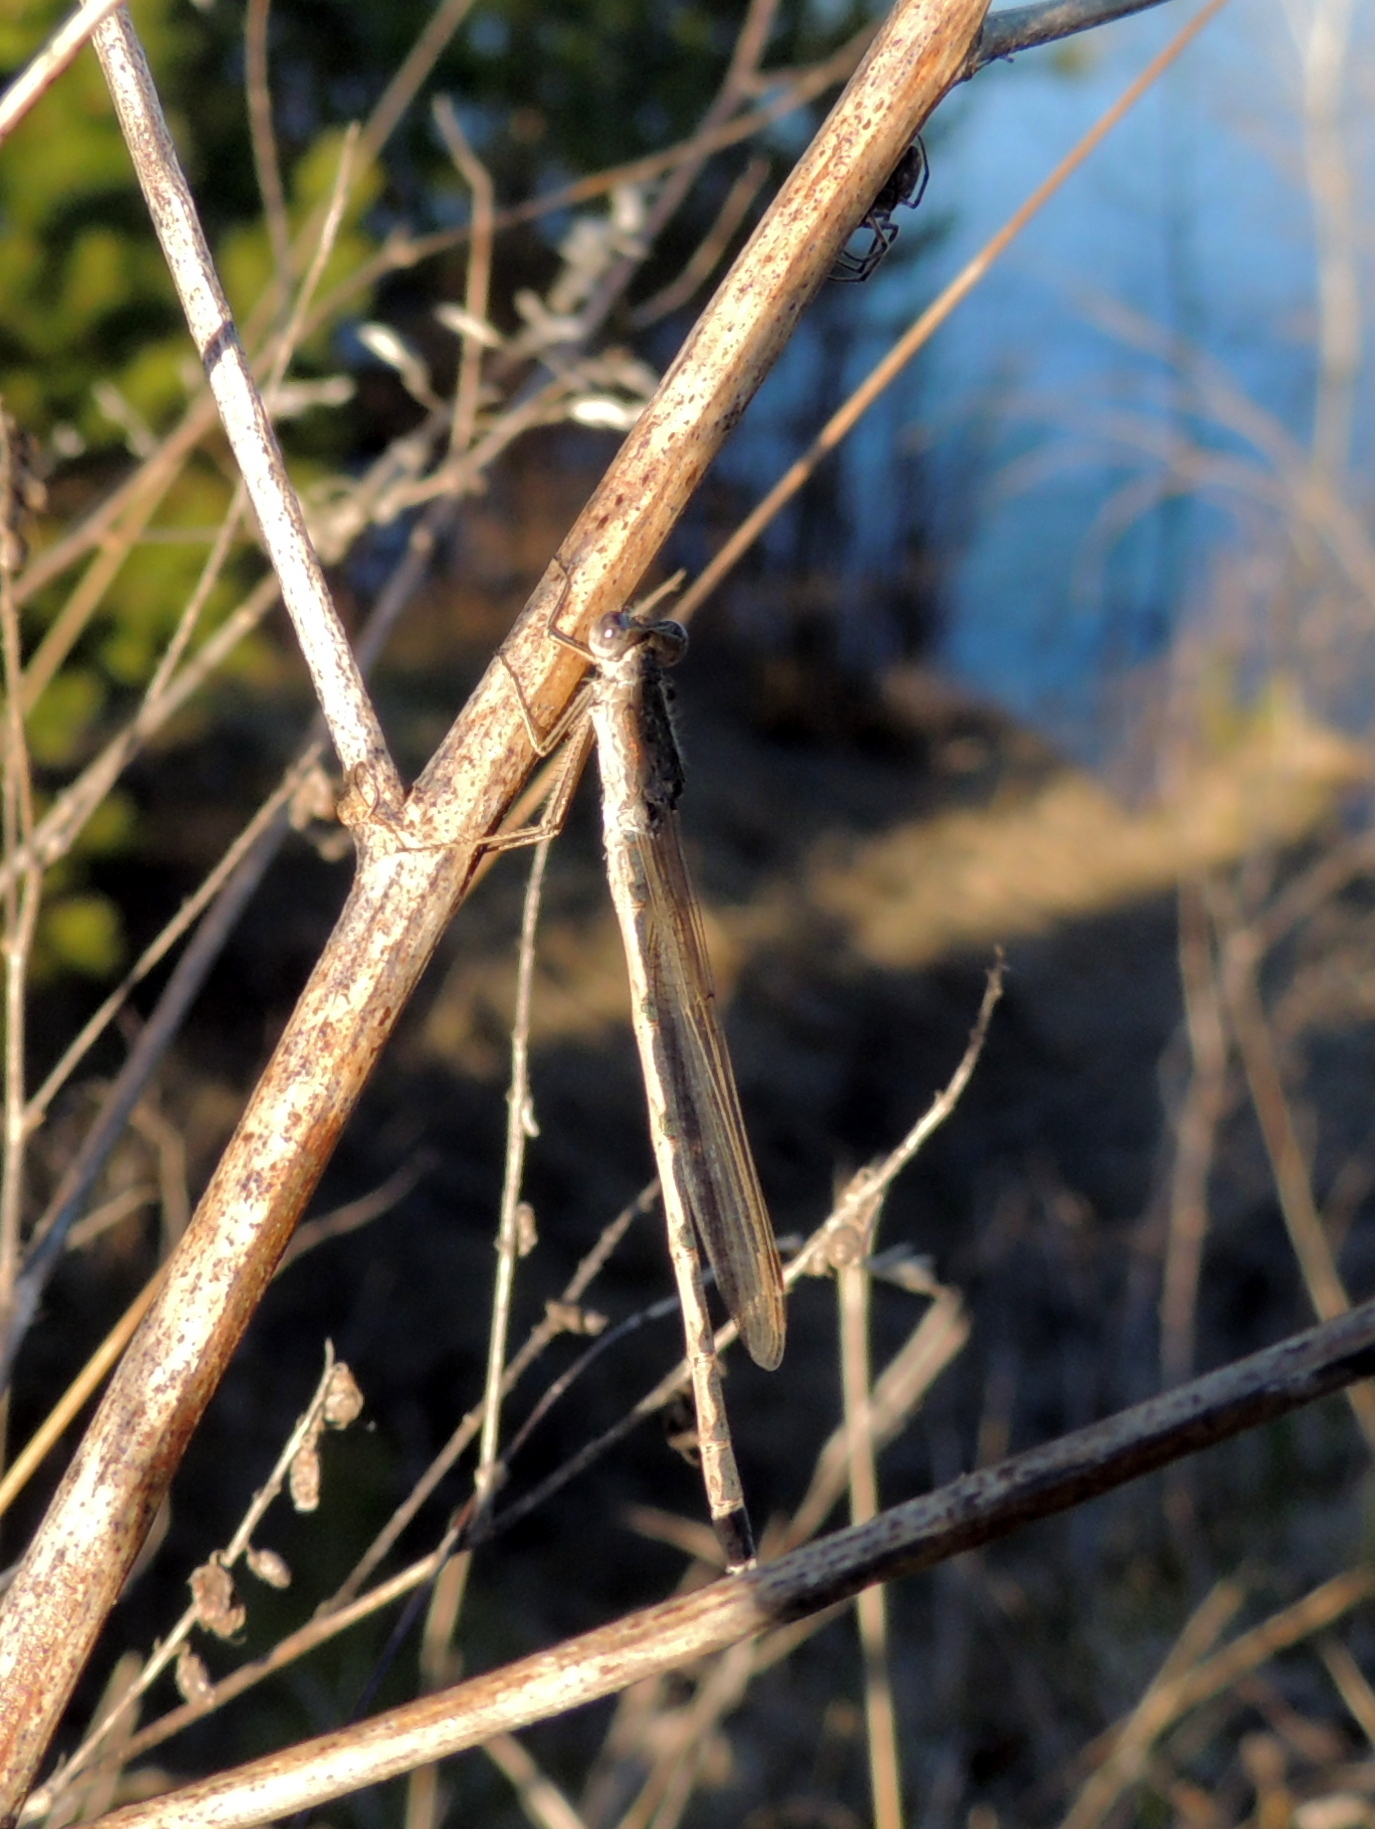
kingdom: Animalia
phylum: Arthropoda
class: Insecta
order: Odonata
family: Lestidae
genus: Sympecma
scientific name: Sympecma paedisca
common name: Siberian winter damsel
